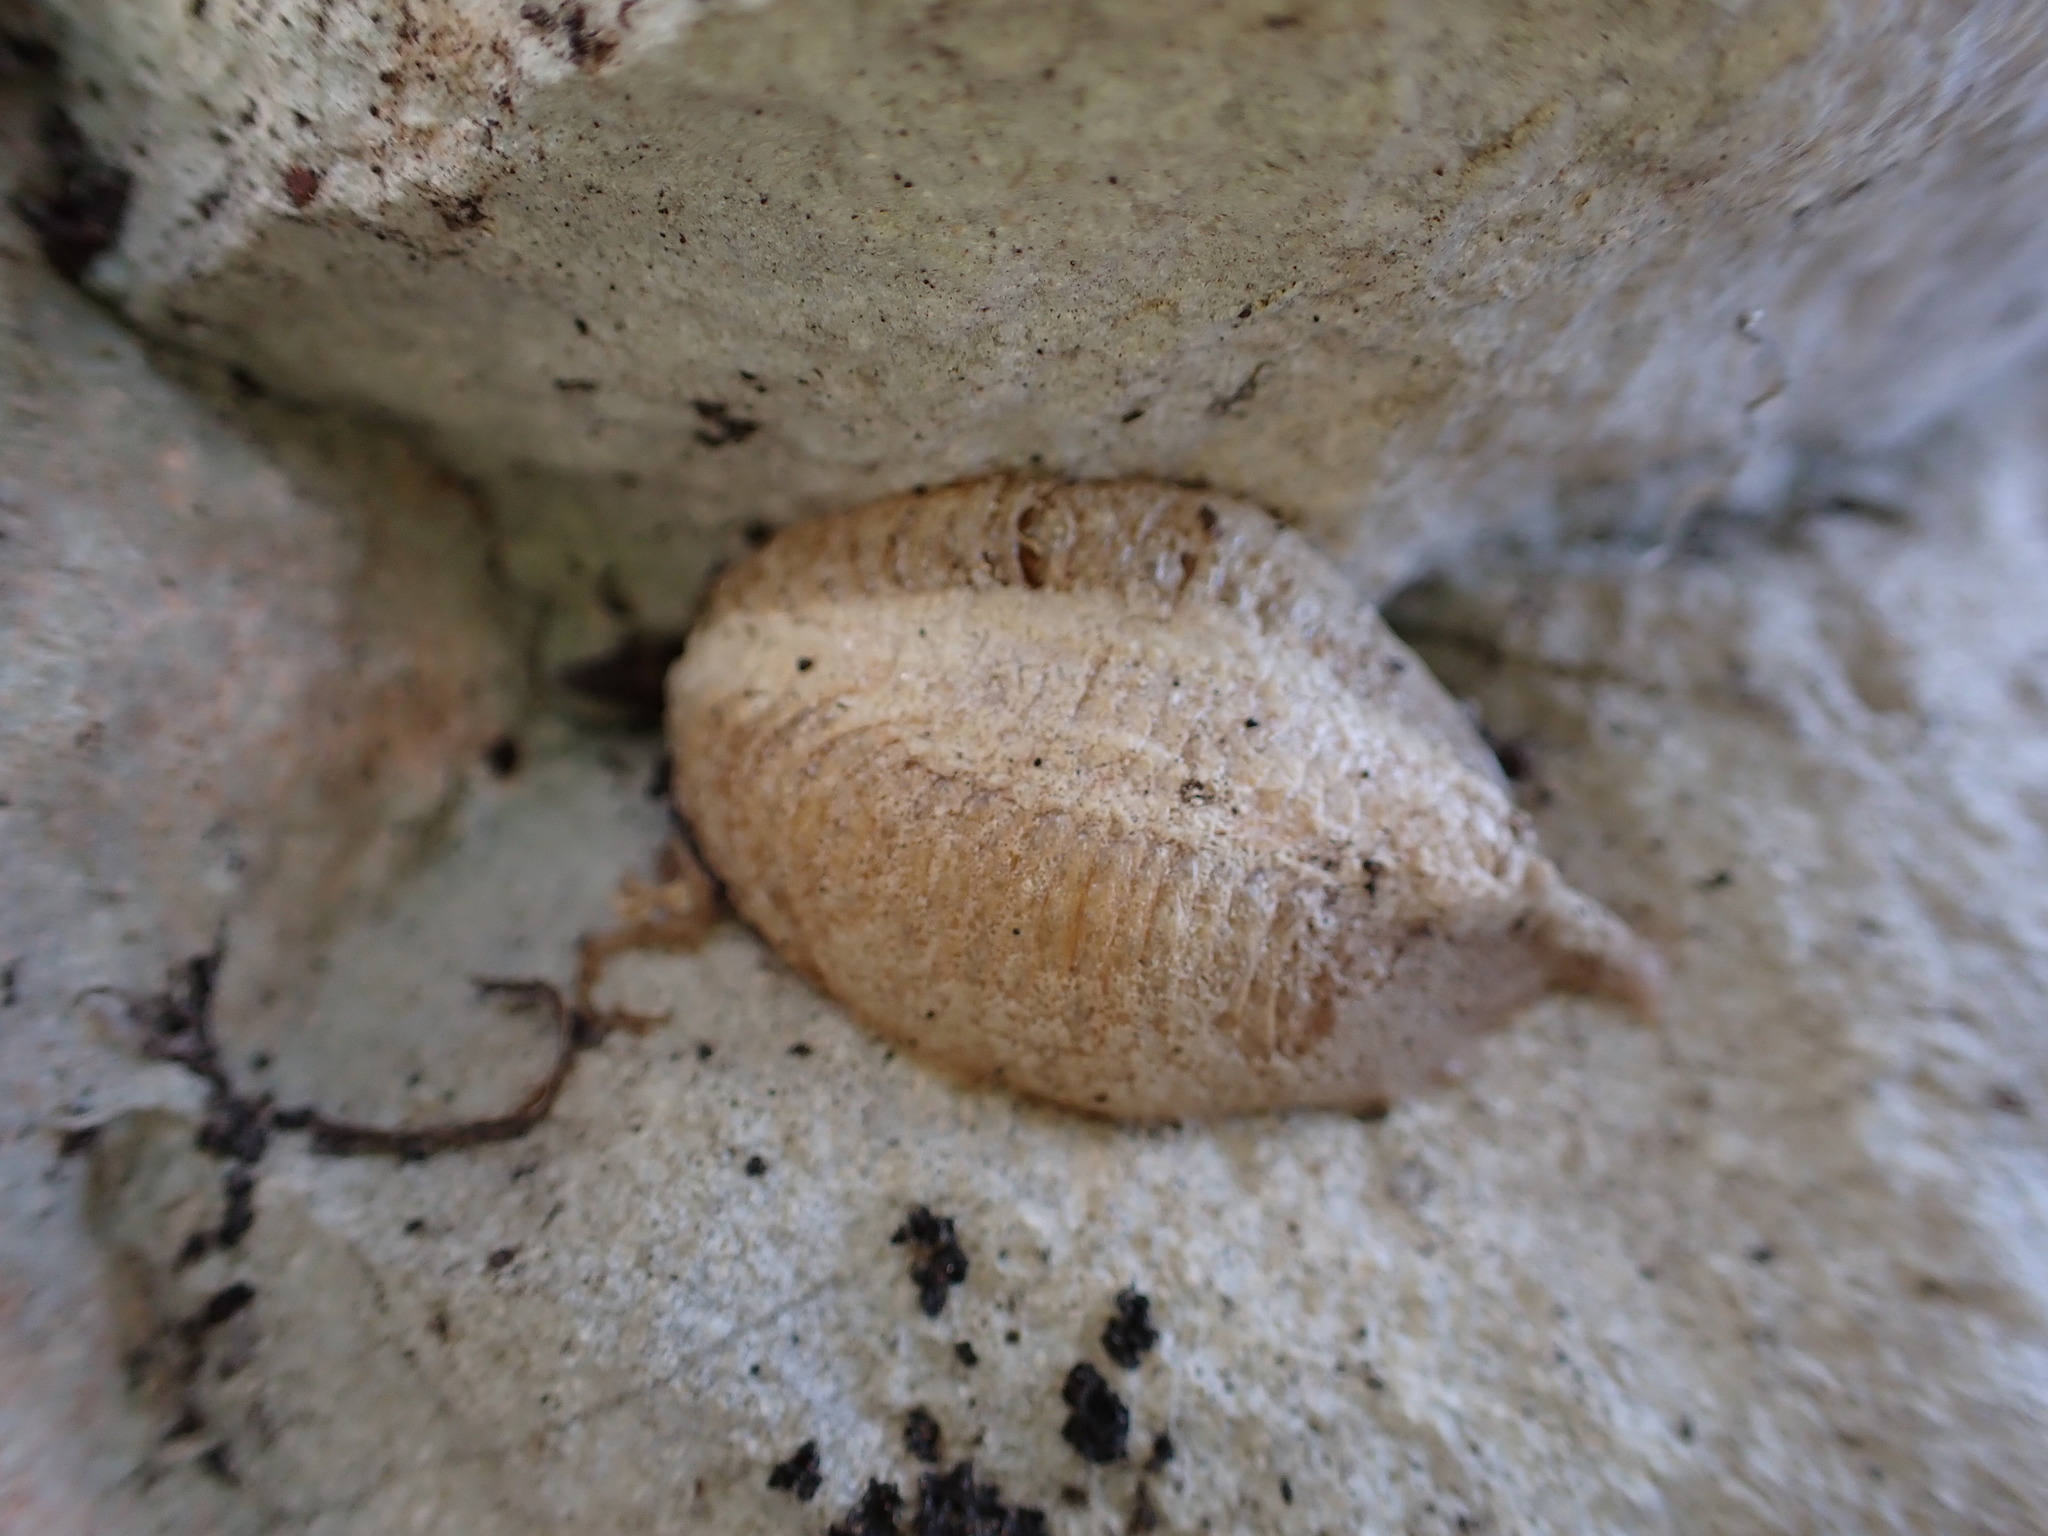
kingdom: Animalia
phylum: Arthropoda
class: Insecta
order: Mantodea
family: Mantidae
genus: Mantis
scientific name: Mantis religiosa
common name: Praying mantis
